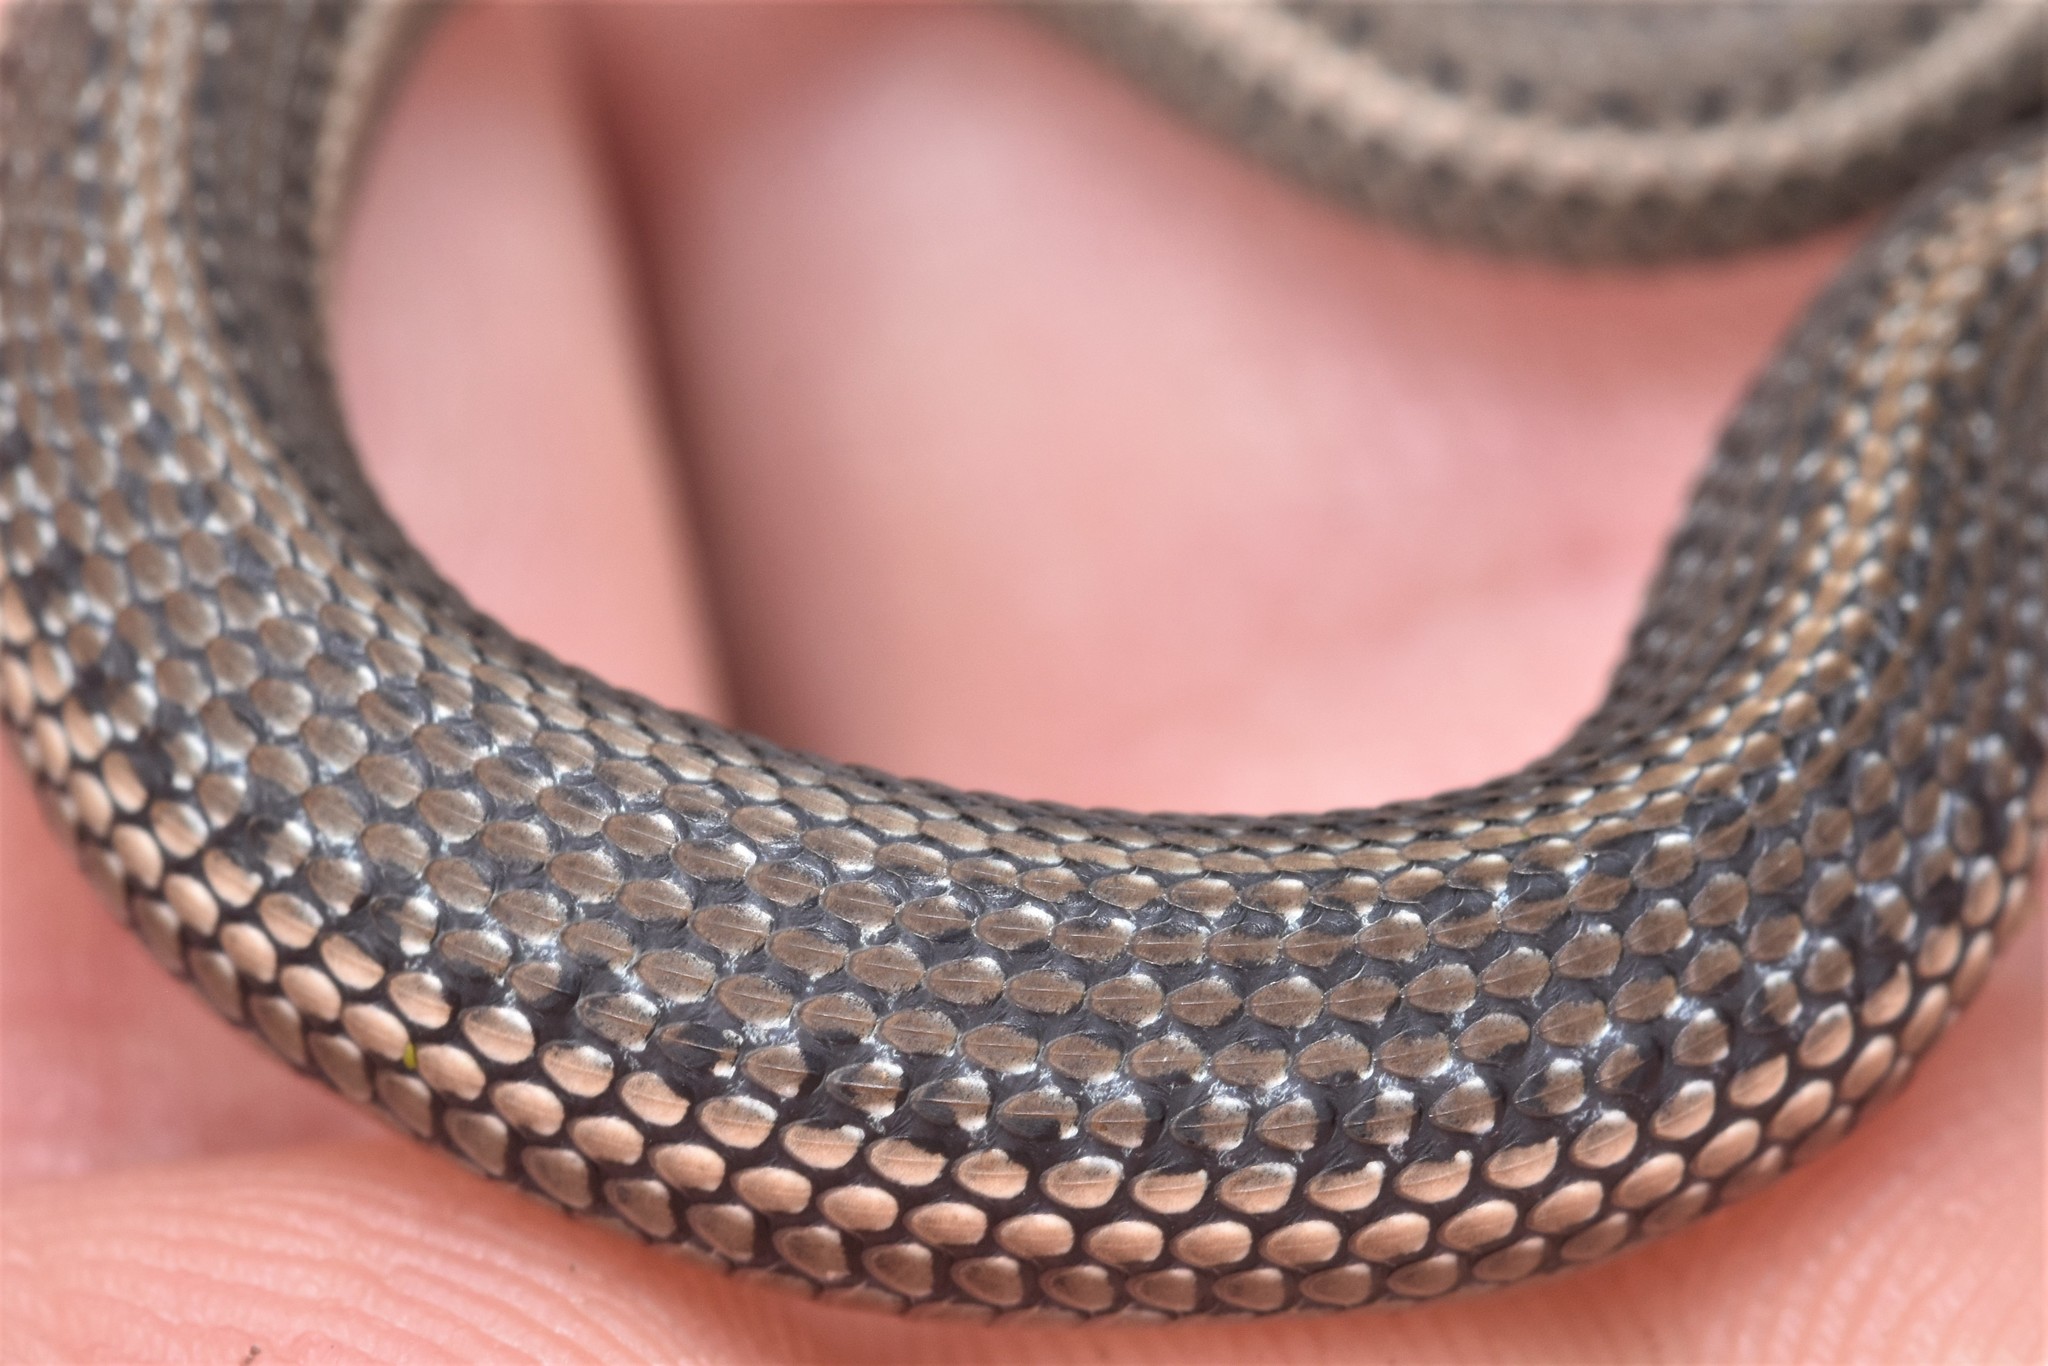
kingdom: Animalia
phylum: Chordata
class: Squamata
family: Colubridae
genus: Thamnophis
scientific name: Thamnophis ordinoides
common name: Northwestern garter snake
